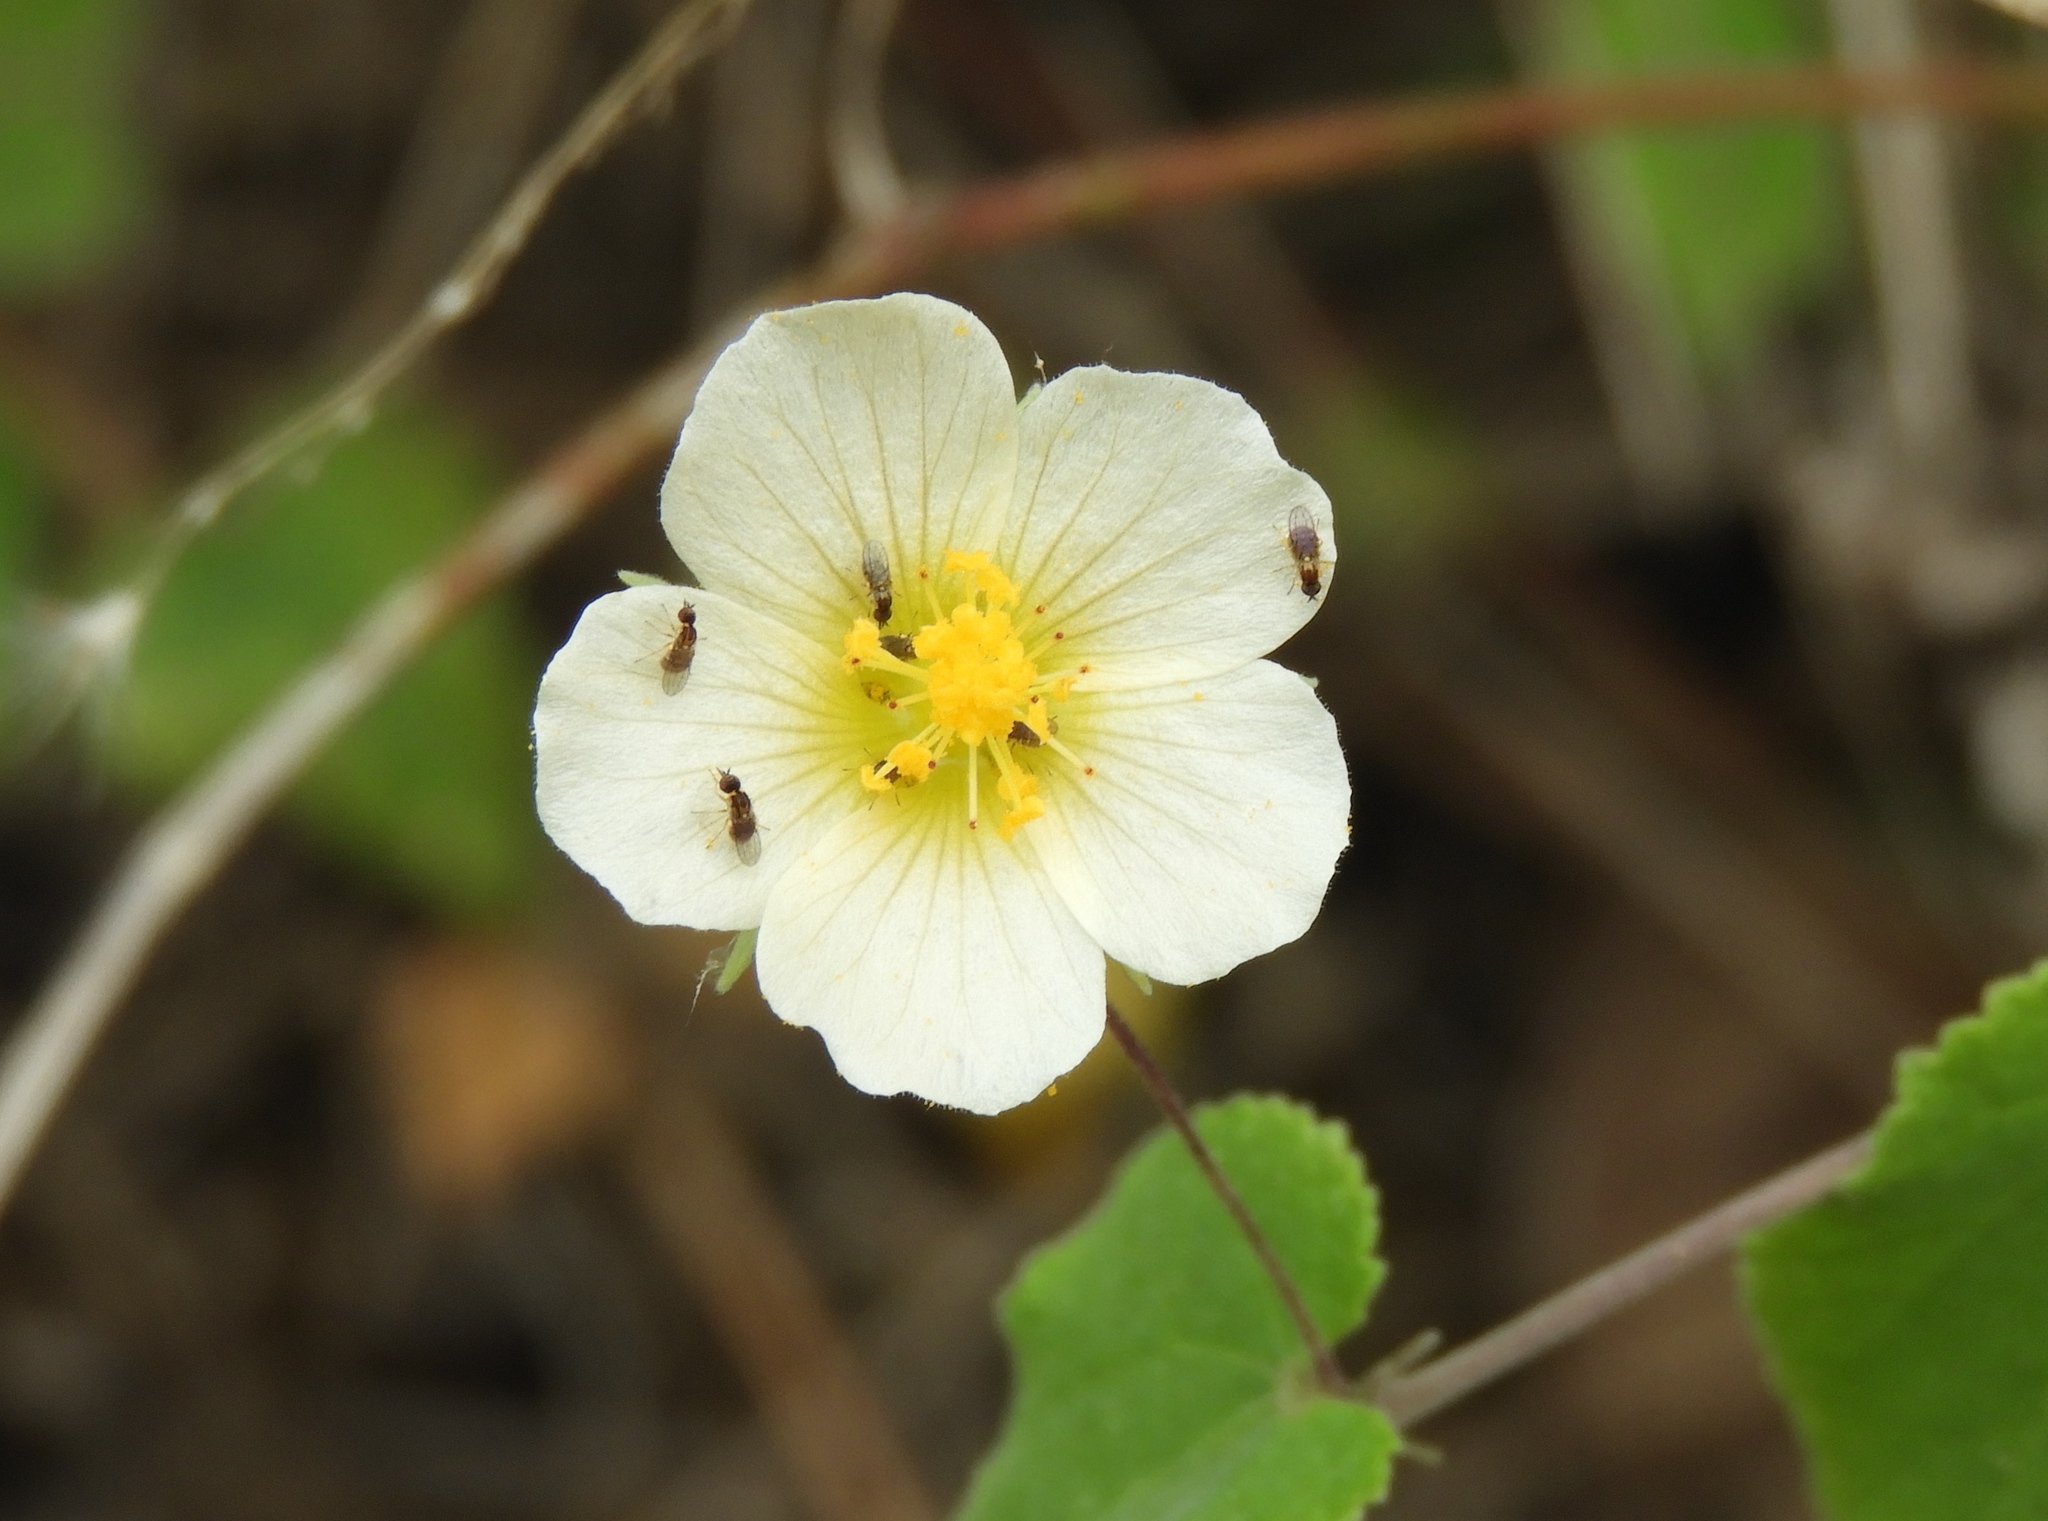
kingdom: Plantae
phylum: Tracheophyta
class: Magnoliopsida
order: Malvales
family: Malvaceae
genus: Herissantia
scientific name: Herissantia crispa
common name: Bladdermallow
